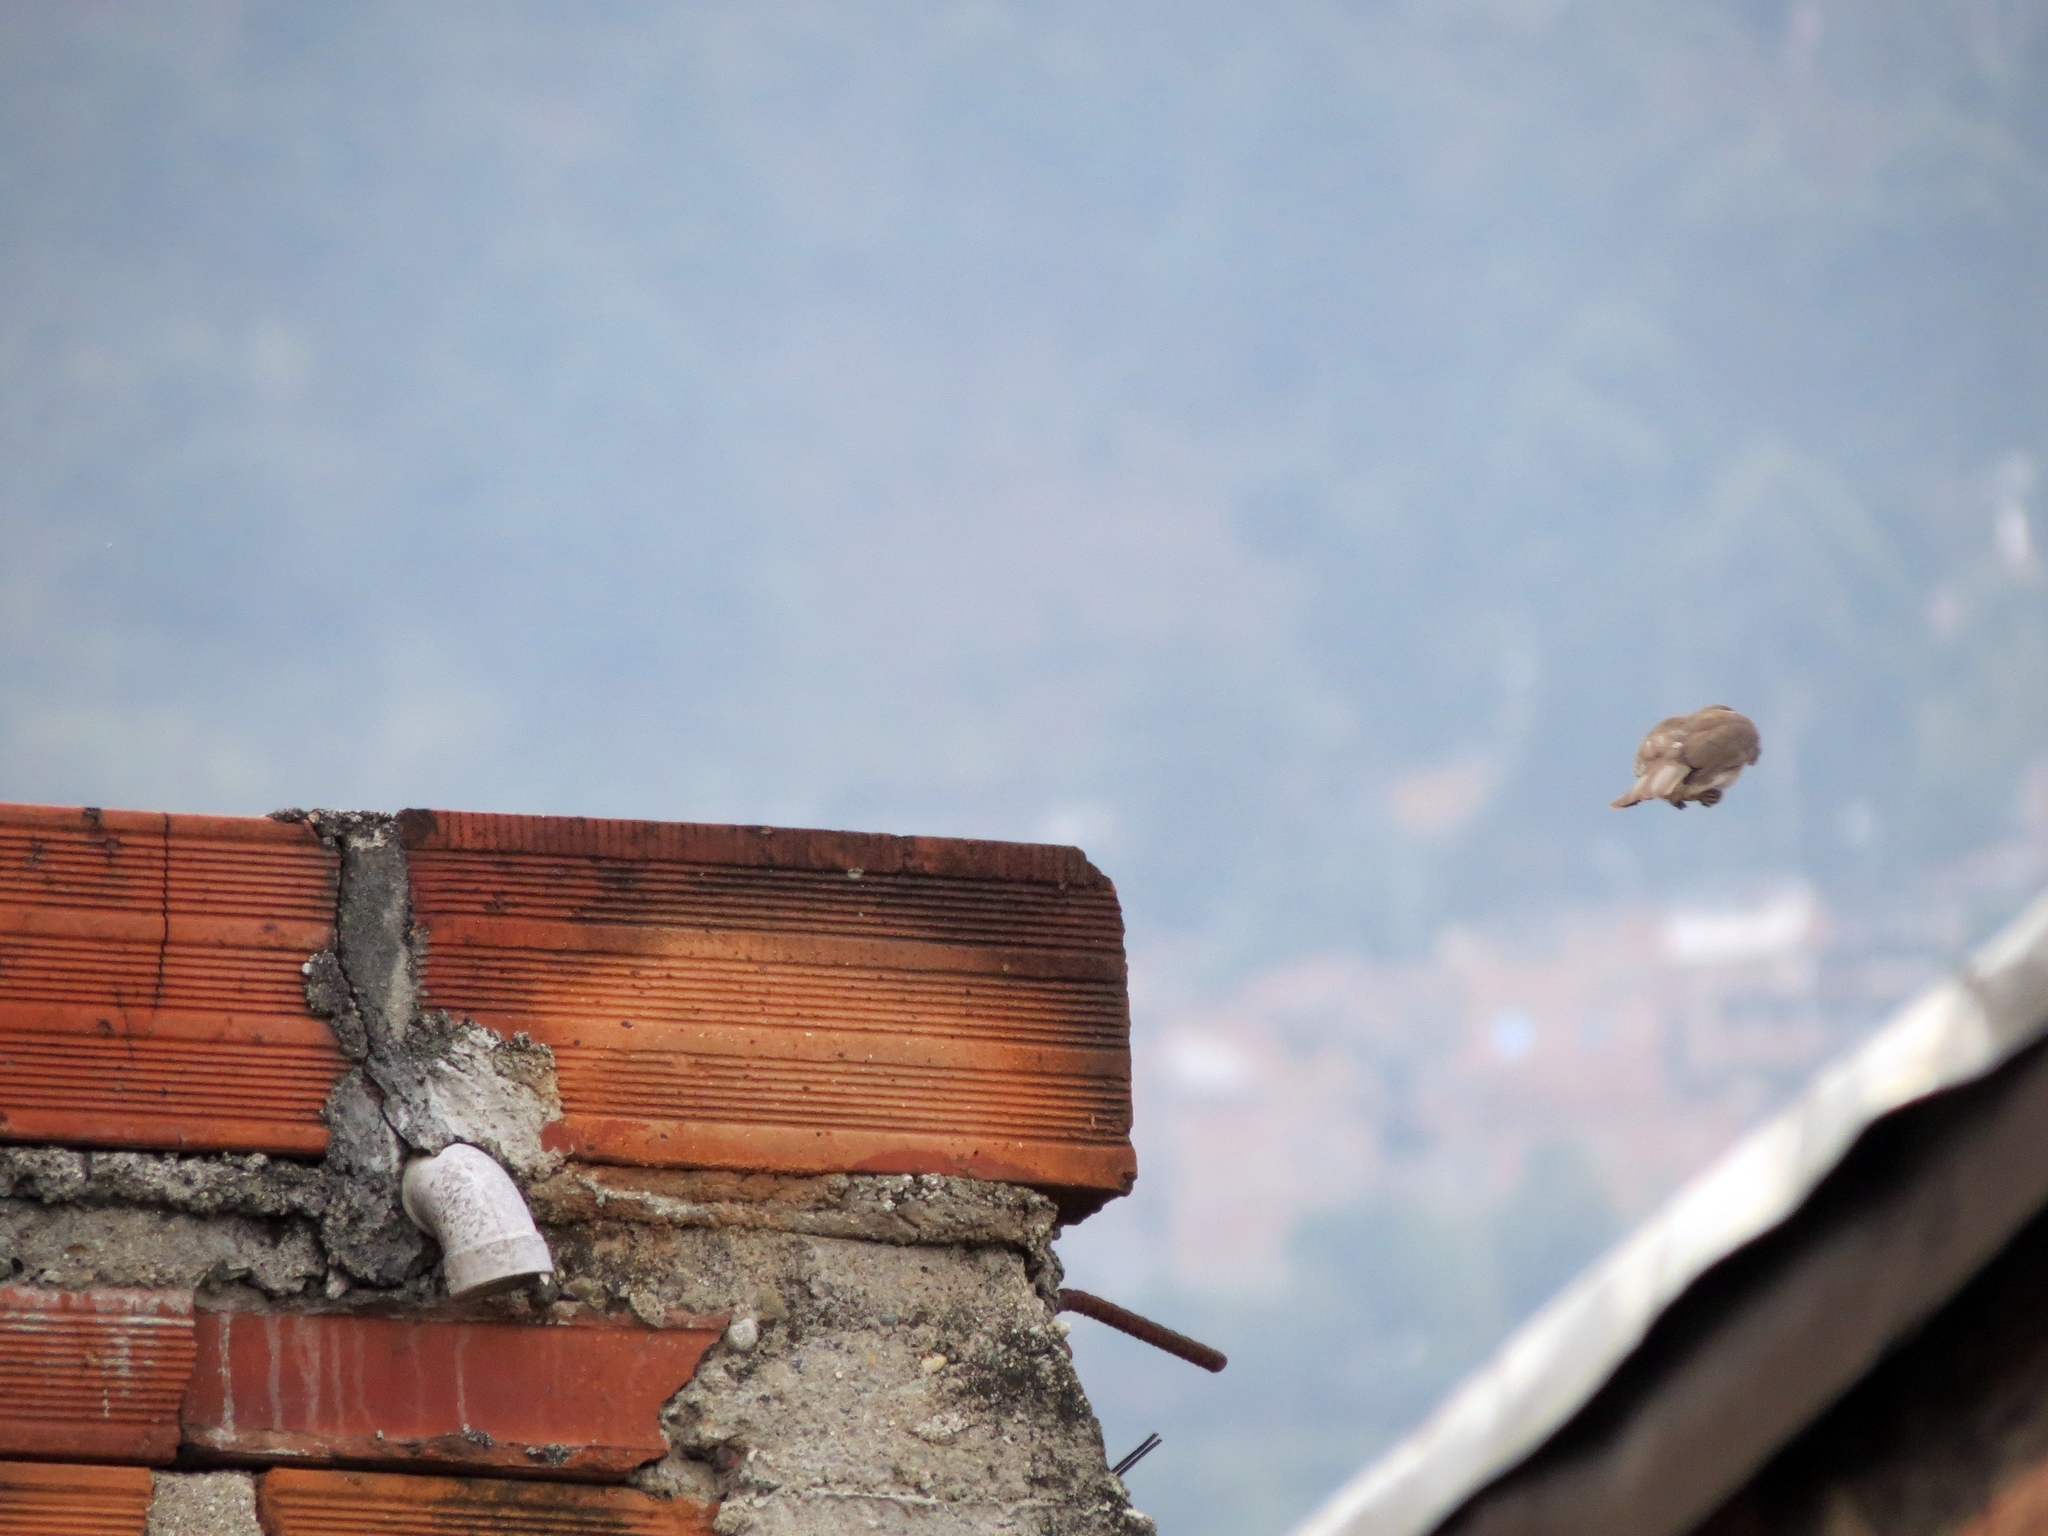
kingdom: Animalia
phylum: Chordata
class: Aves
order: Passeriformes
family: Turdidae
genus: Turdus
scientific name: Turdus ignobilis
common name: Black-billed thrush
